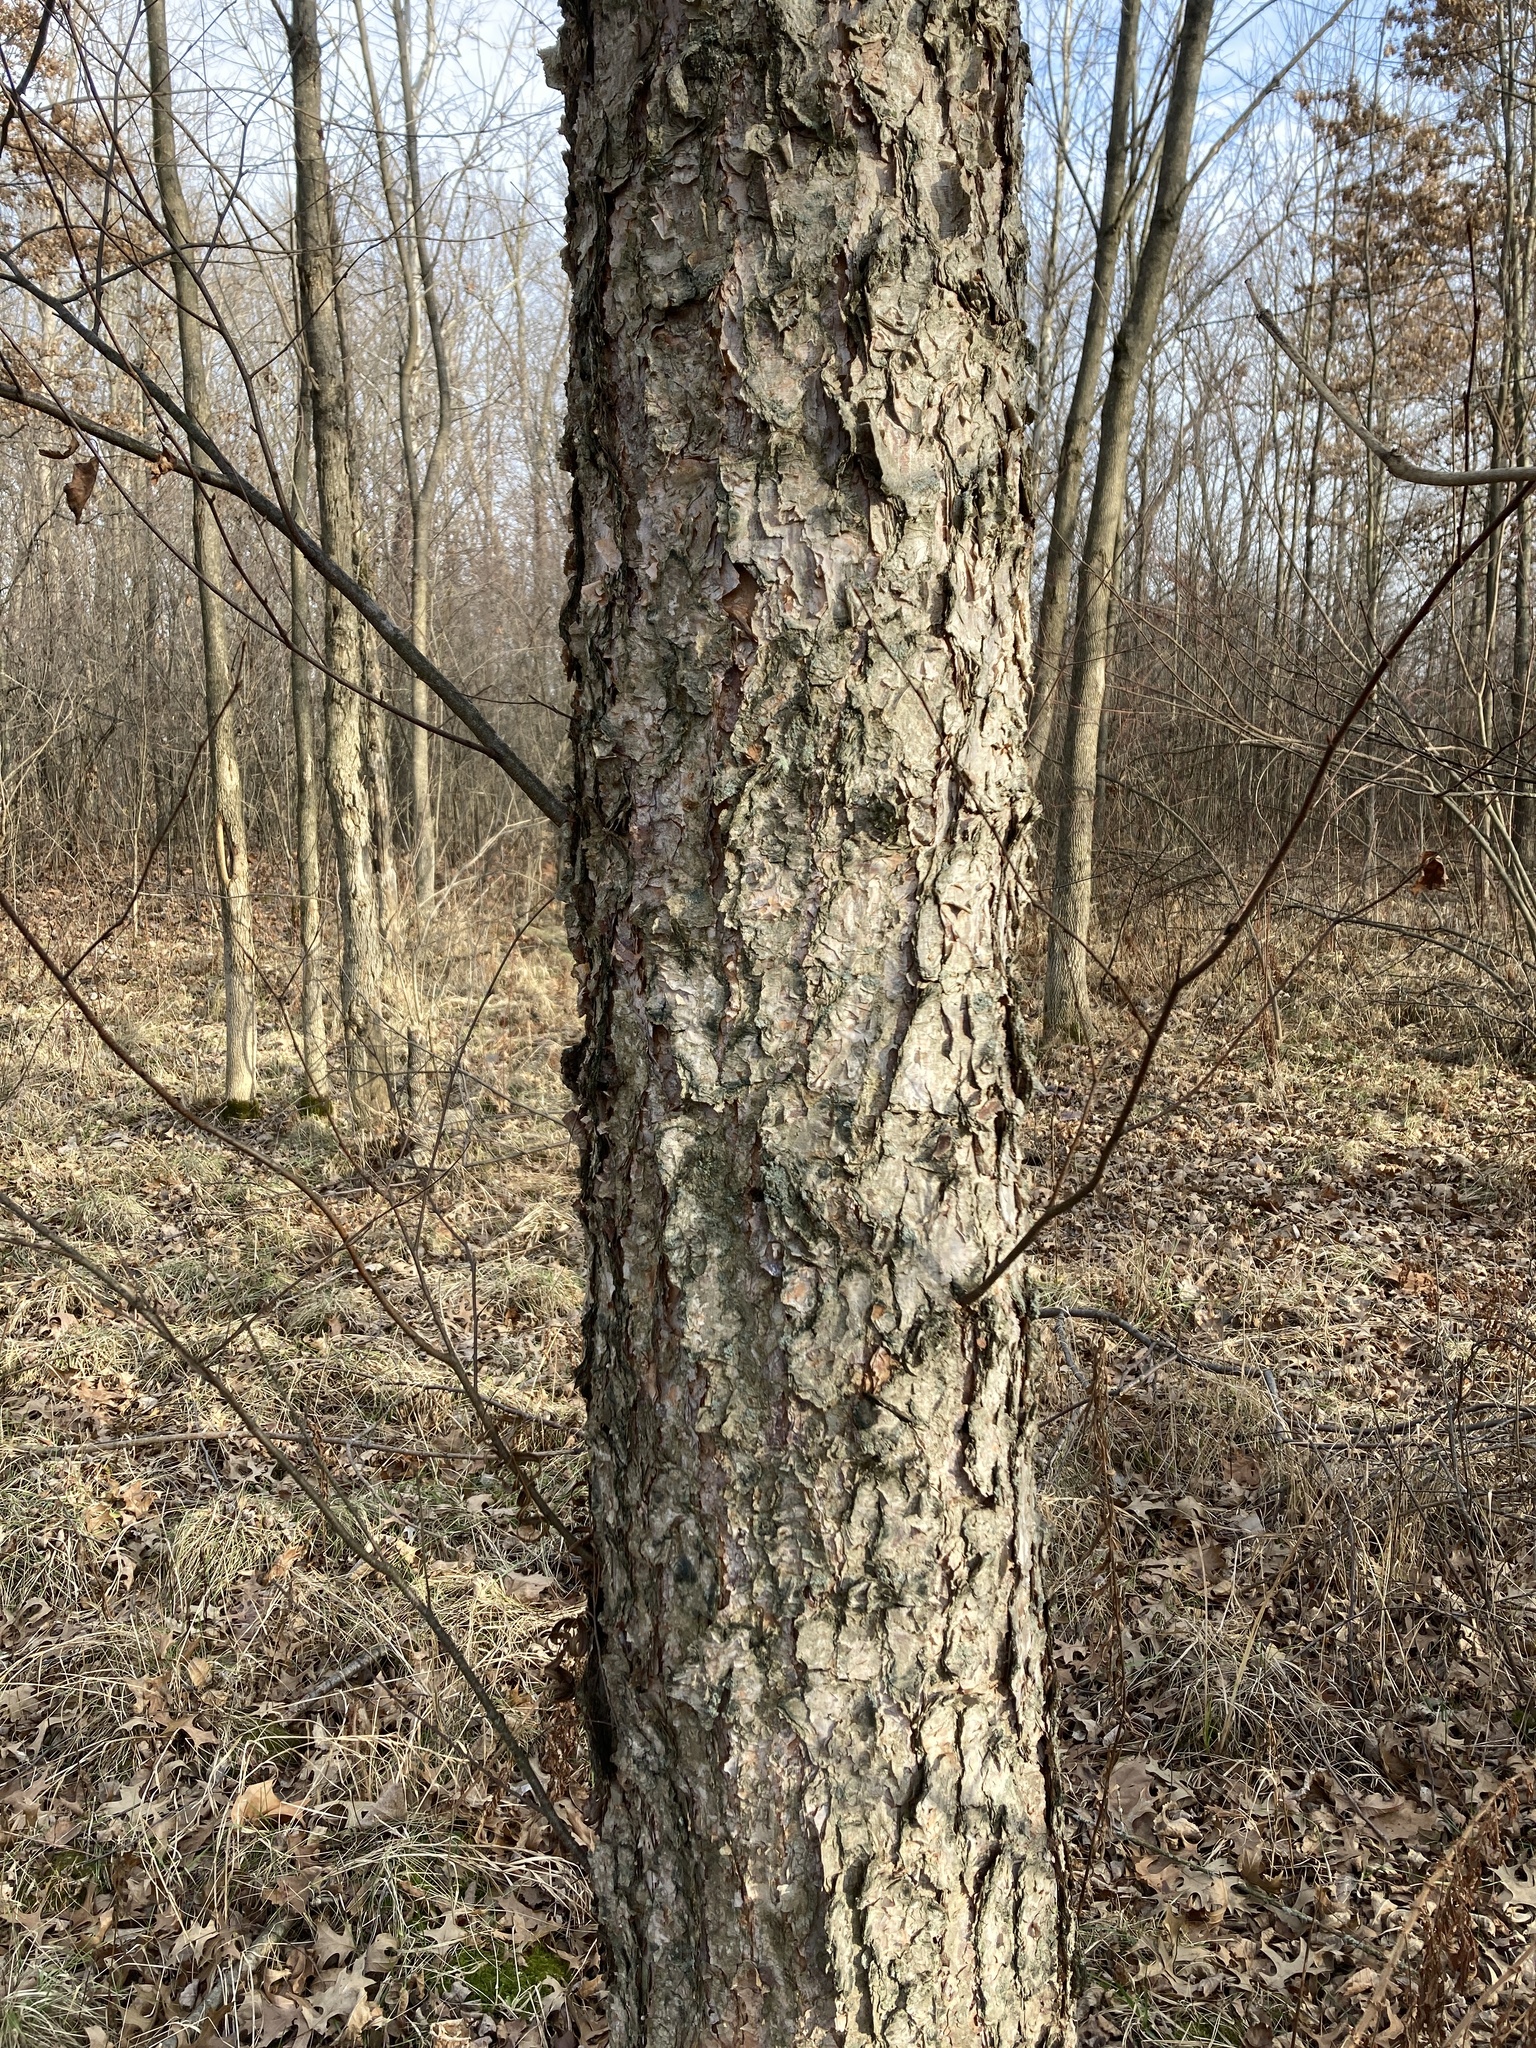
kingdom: Plantae
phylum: Tracheophyta
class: Magnoliopsida
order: Fagales
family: Betulaceae
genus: Betula
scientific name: Betula nigra
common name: Black birch
